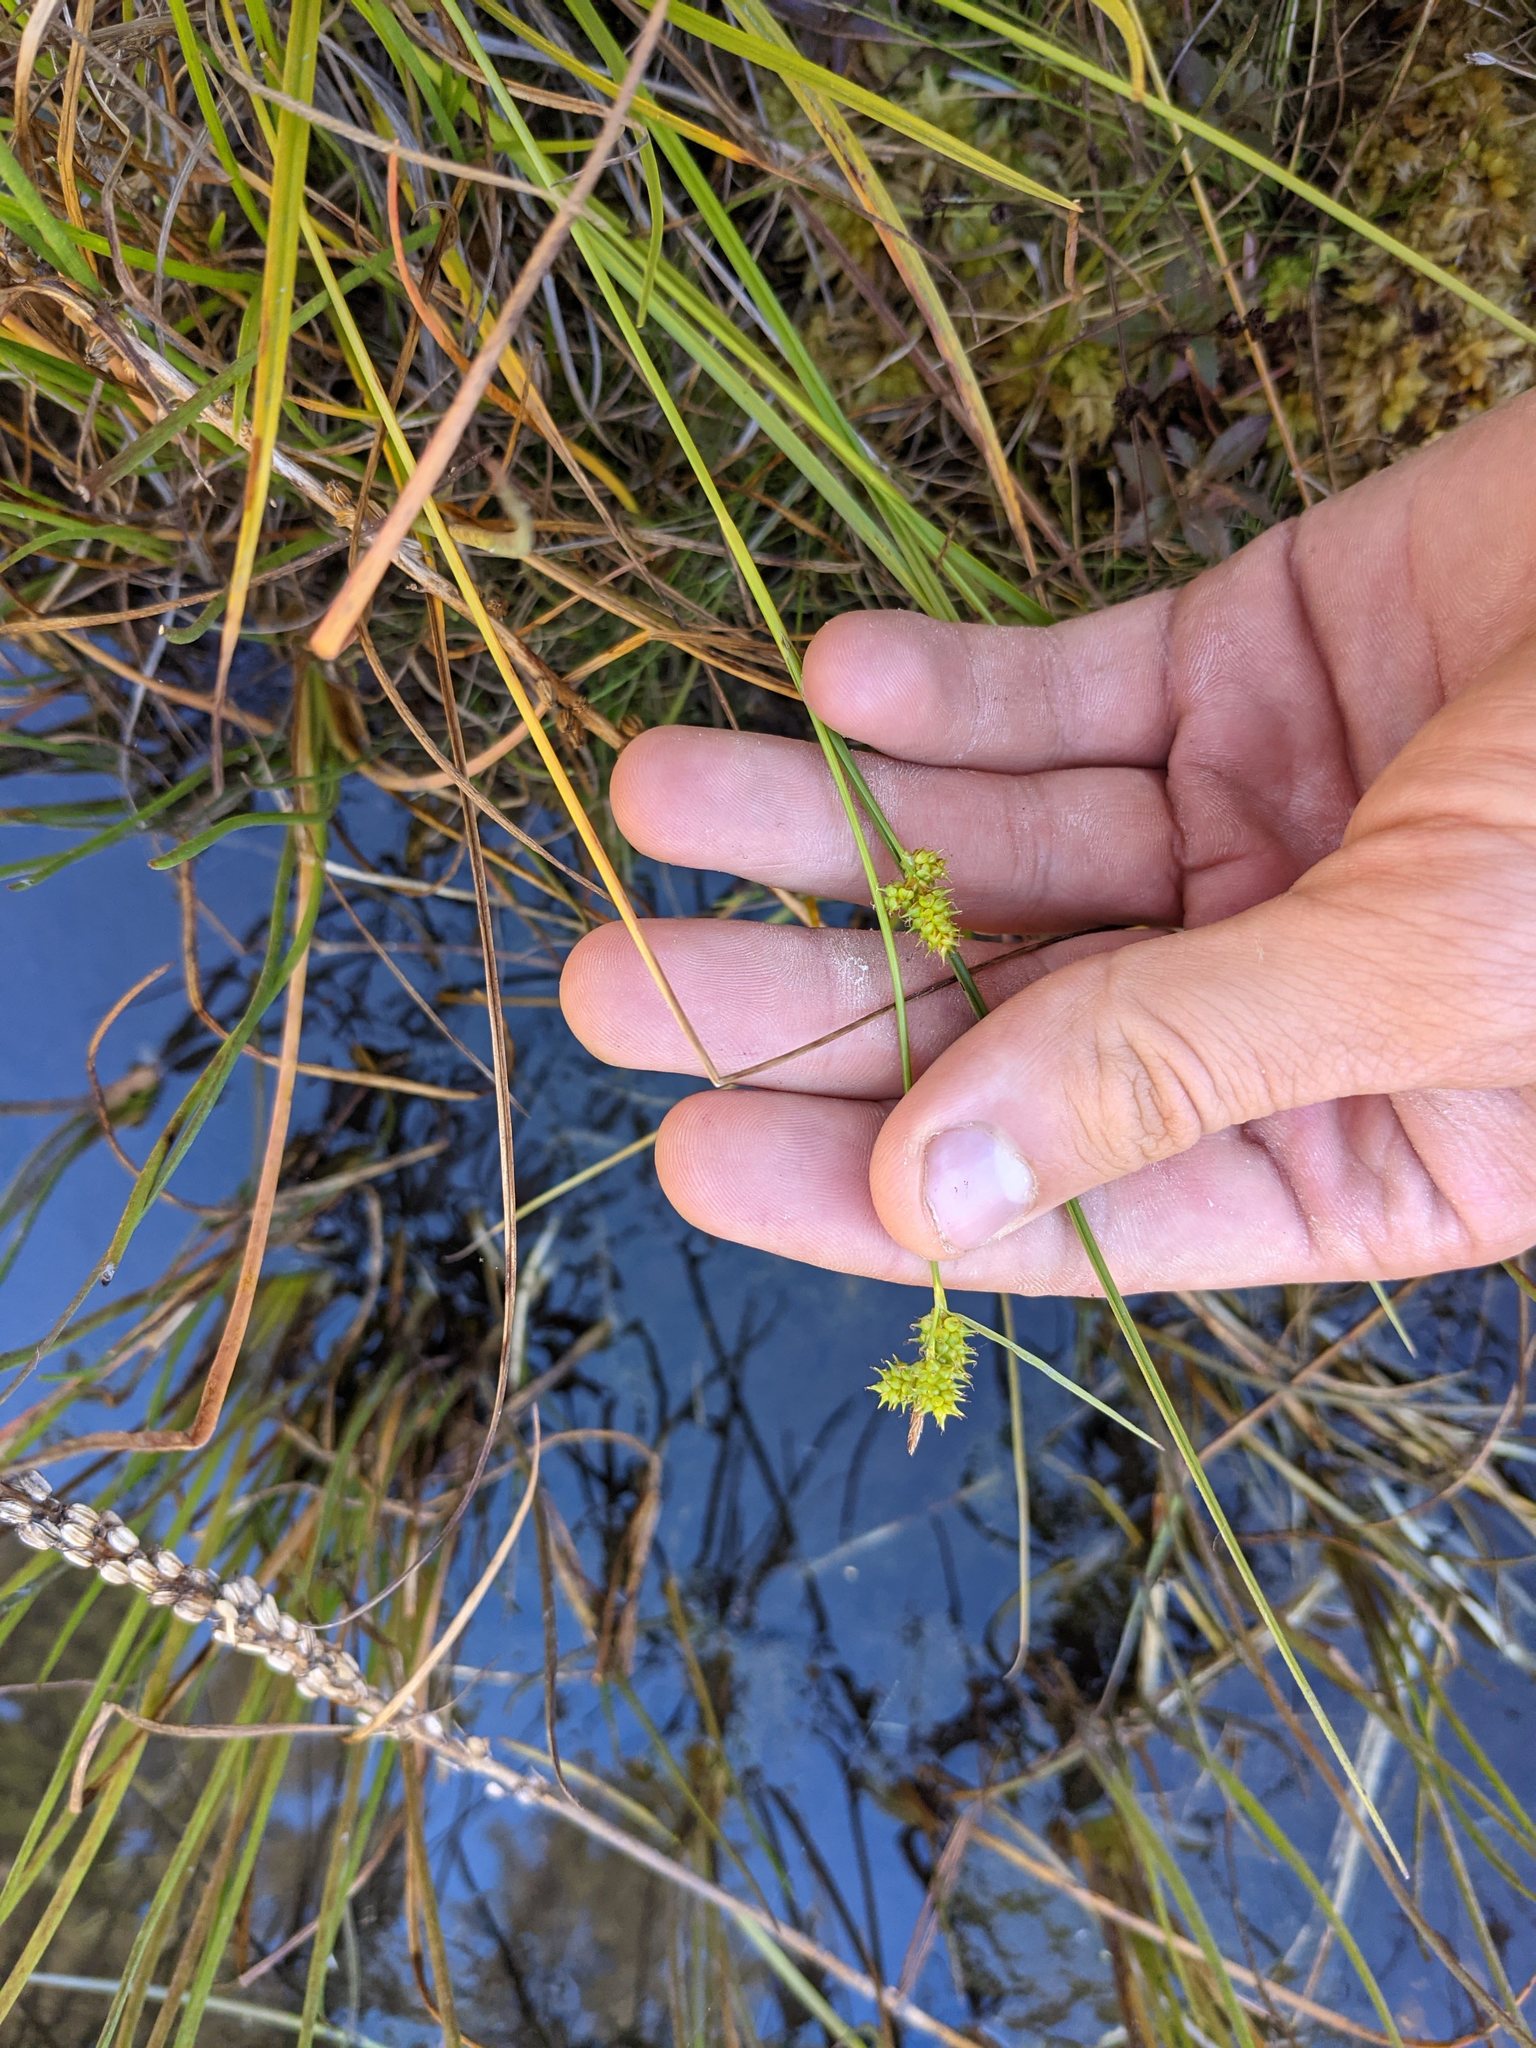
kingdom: Plantae
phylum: Tracheophyta
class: Liliopsida
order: Poales
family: Cyperaceae
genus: Carex
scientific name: Carex
